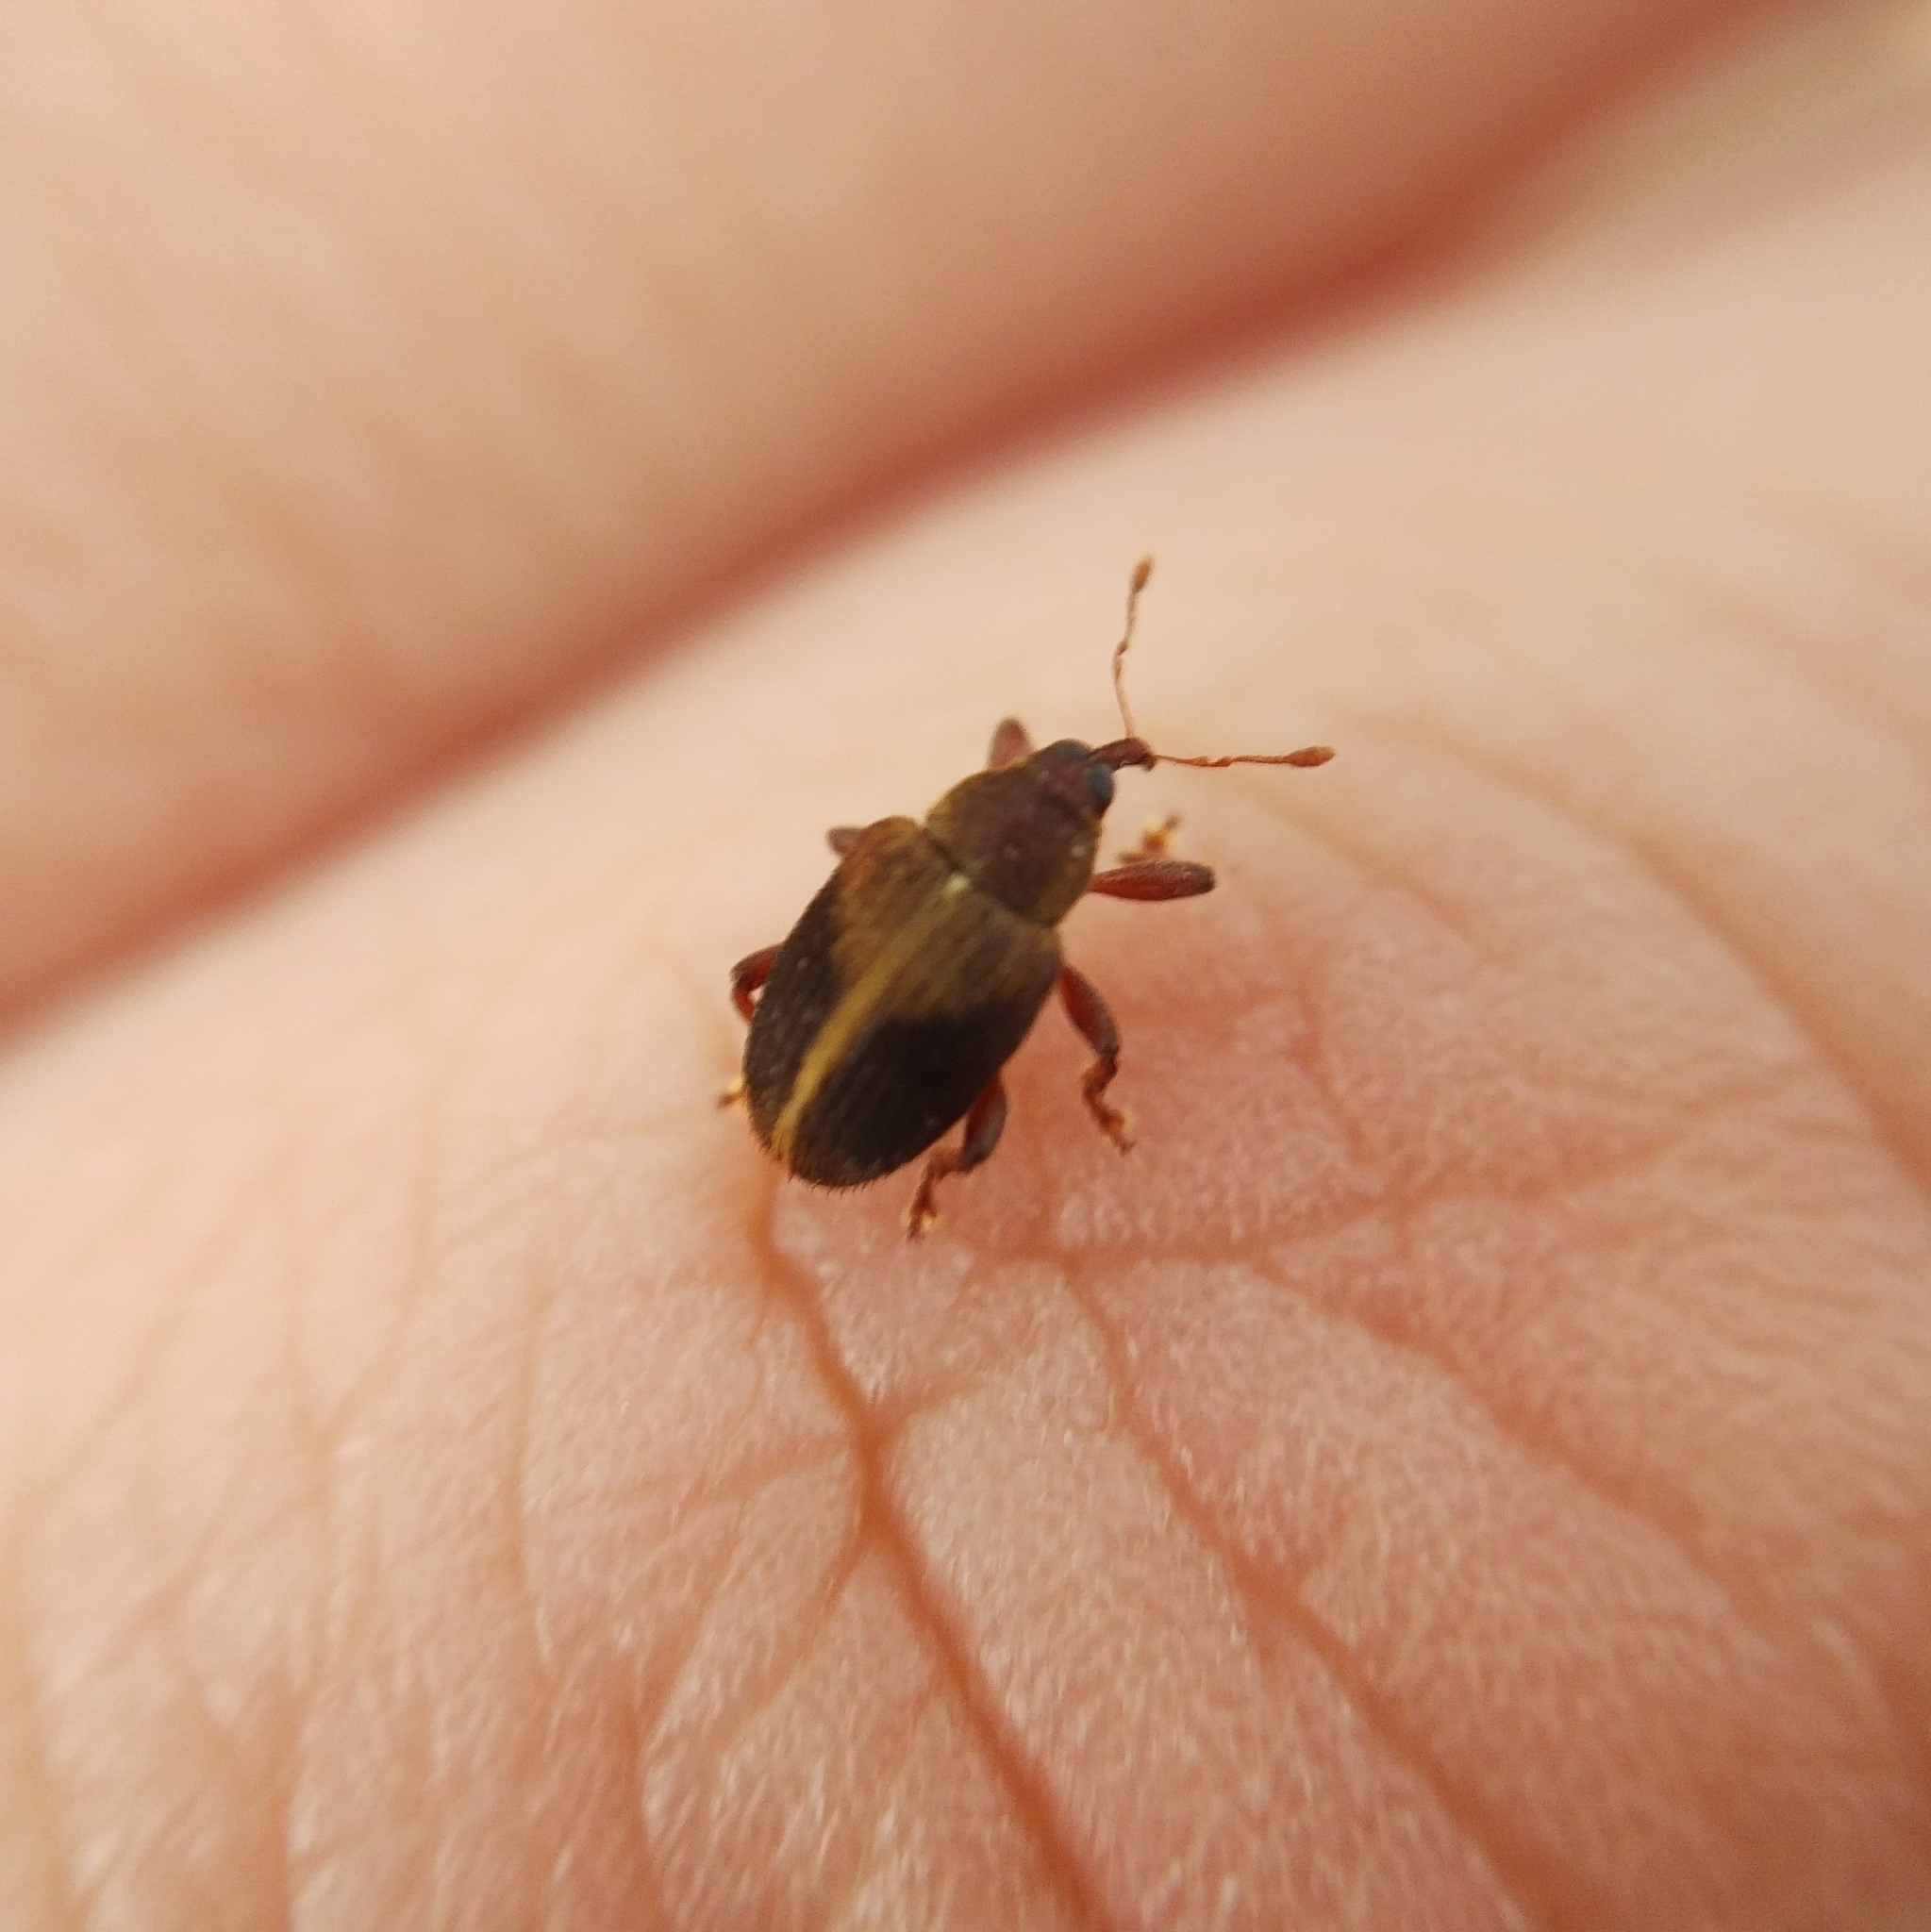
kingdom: Animalia
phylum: Arthropoda
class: Insecta
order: Coleoptera
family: Curculionidae
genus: Lignyodes
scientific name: Lignyodes enucleator
